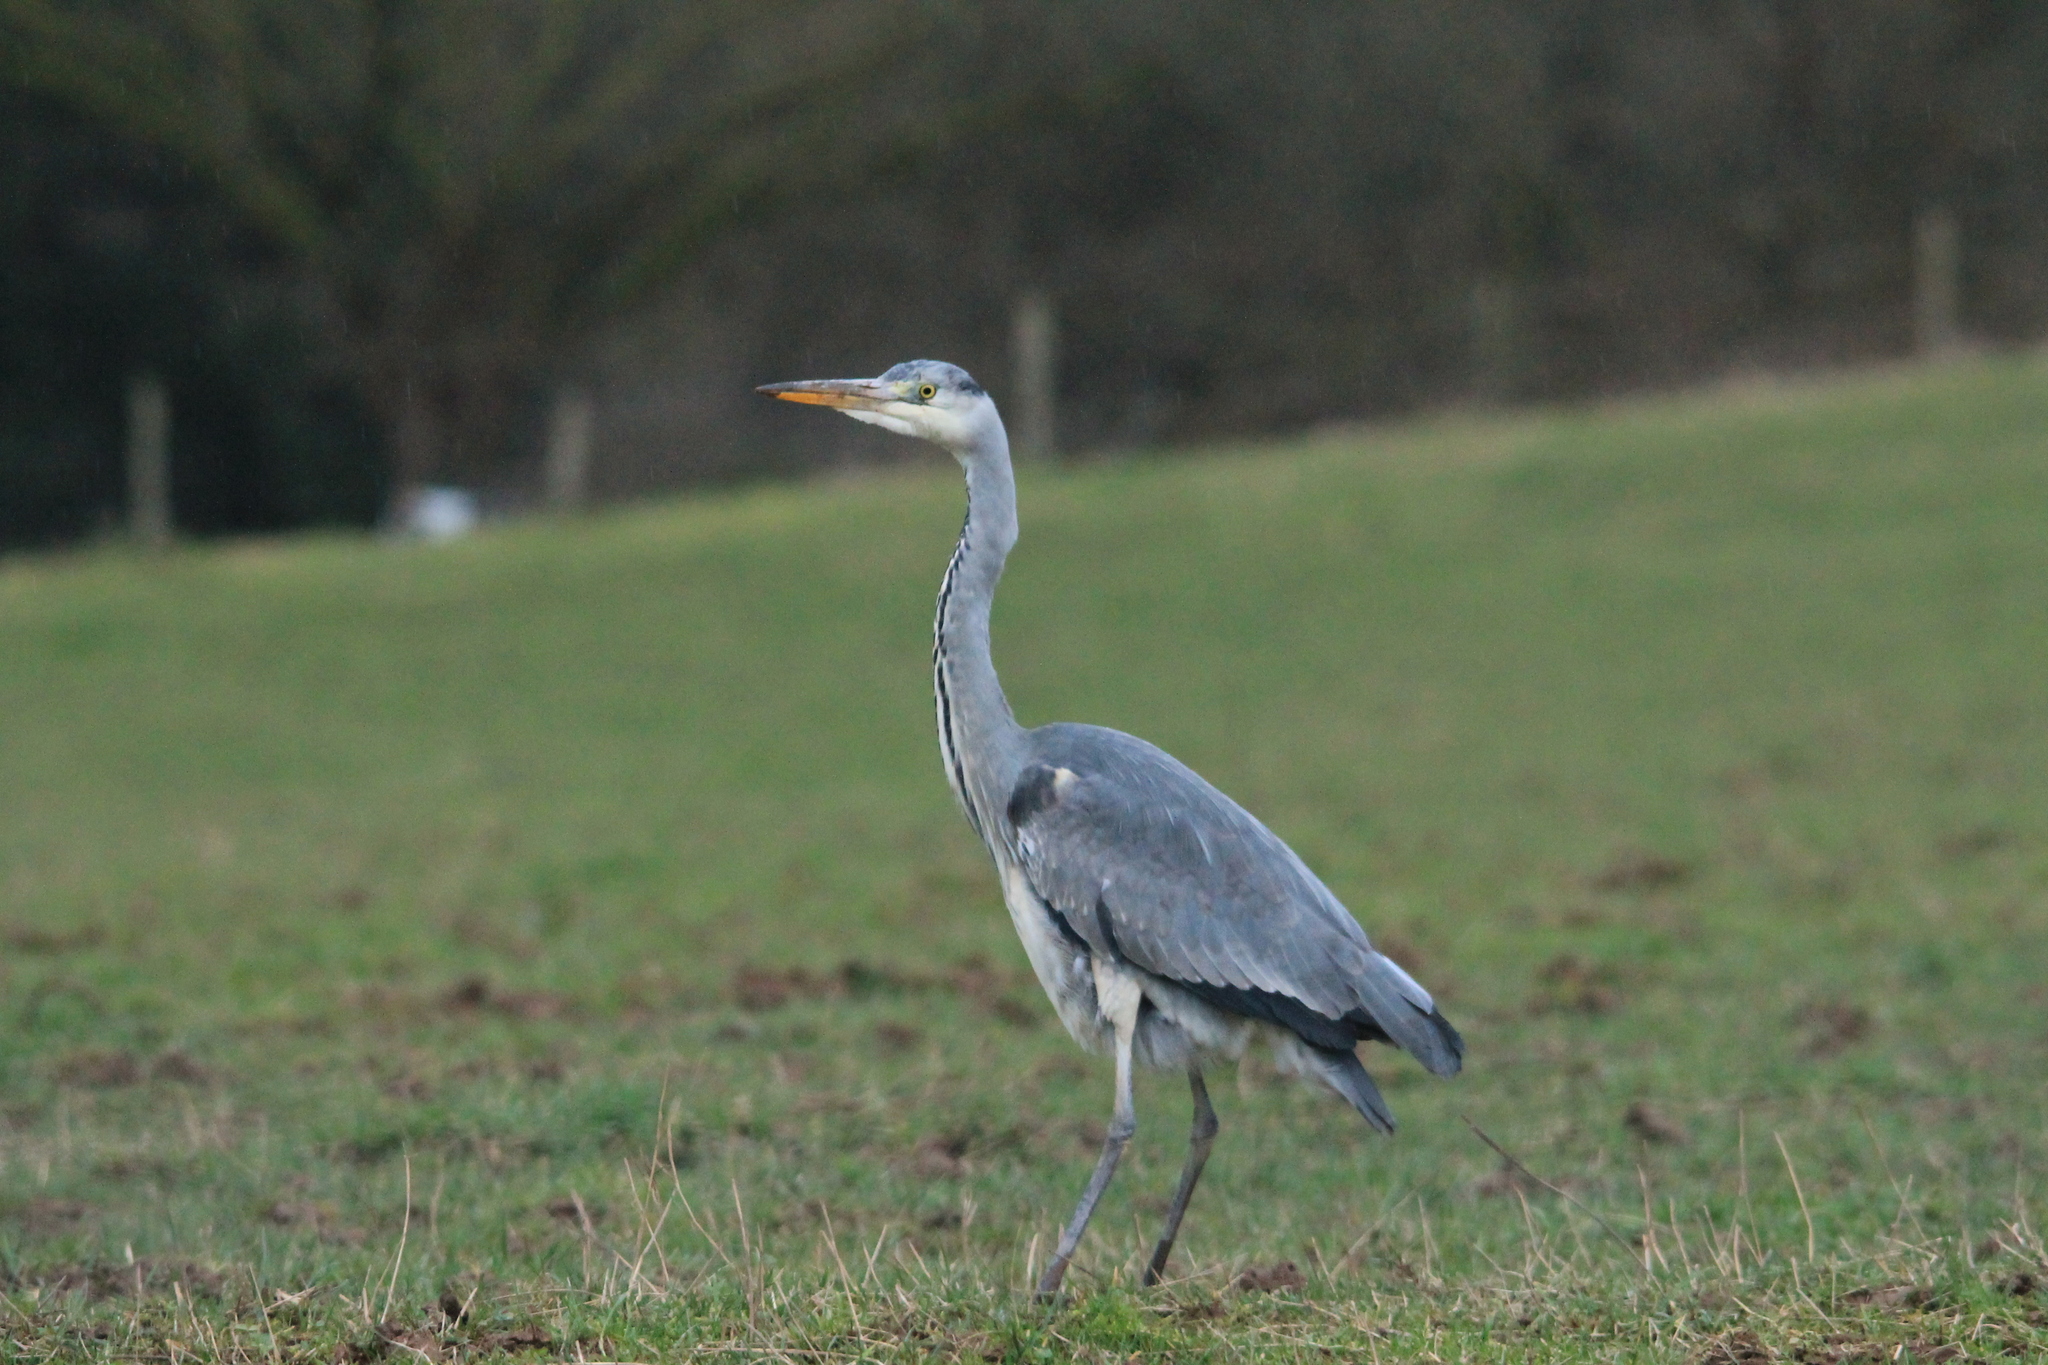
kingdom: Animalia
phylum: Chordata
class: Aves
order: Pelecaniformes
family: Ardeidae
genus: Ardea
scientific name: Ardea cinerea
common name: Grey heron
